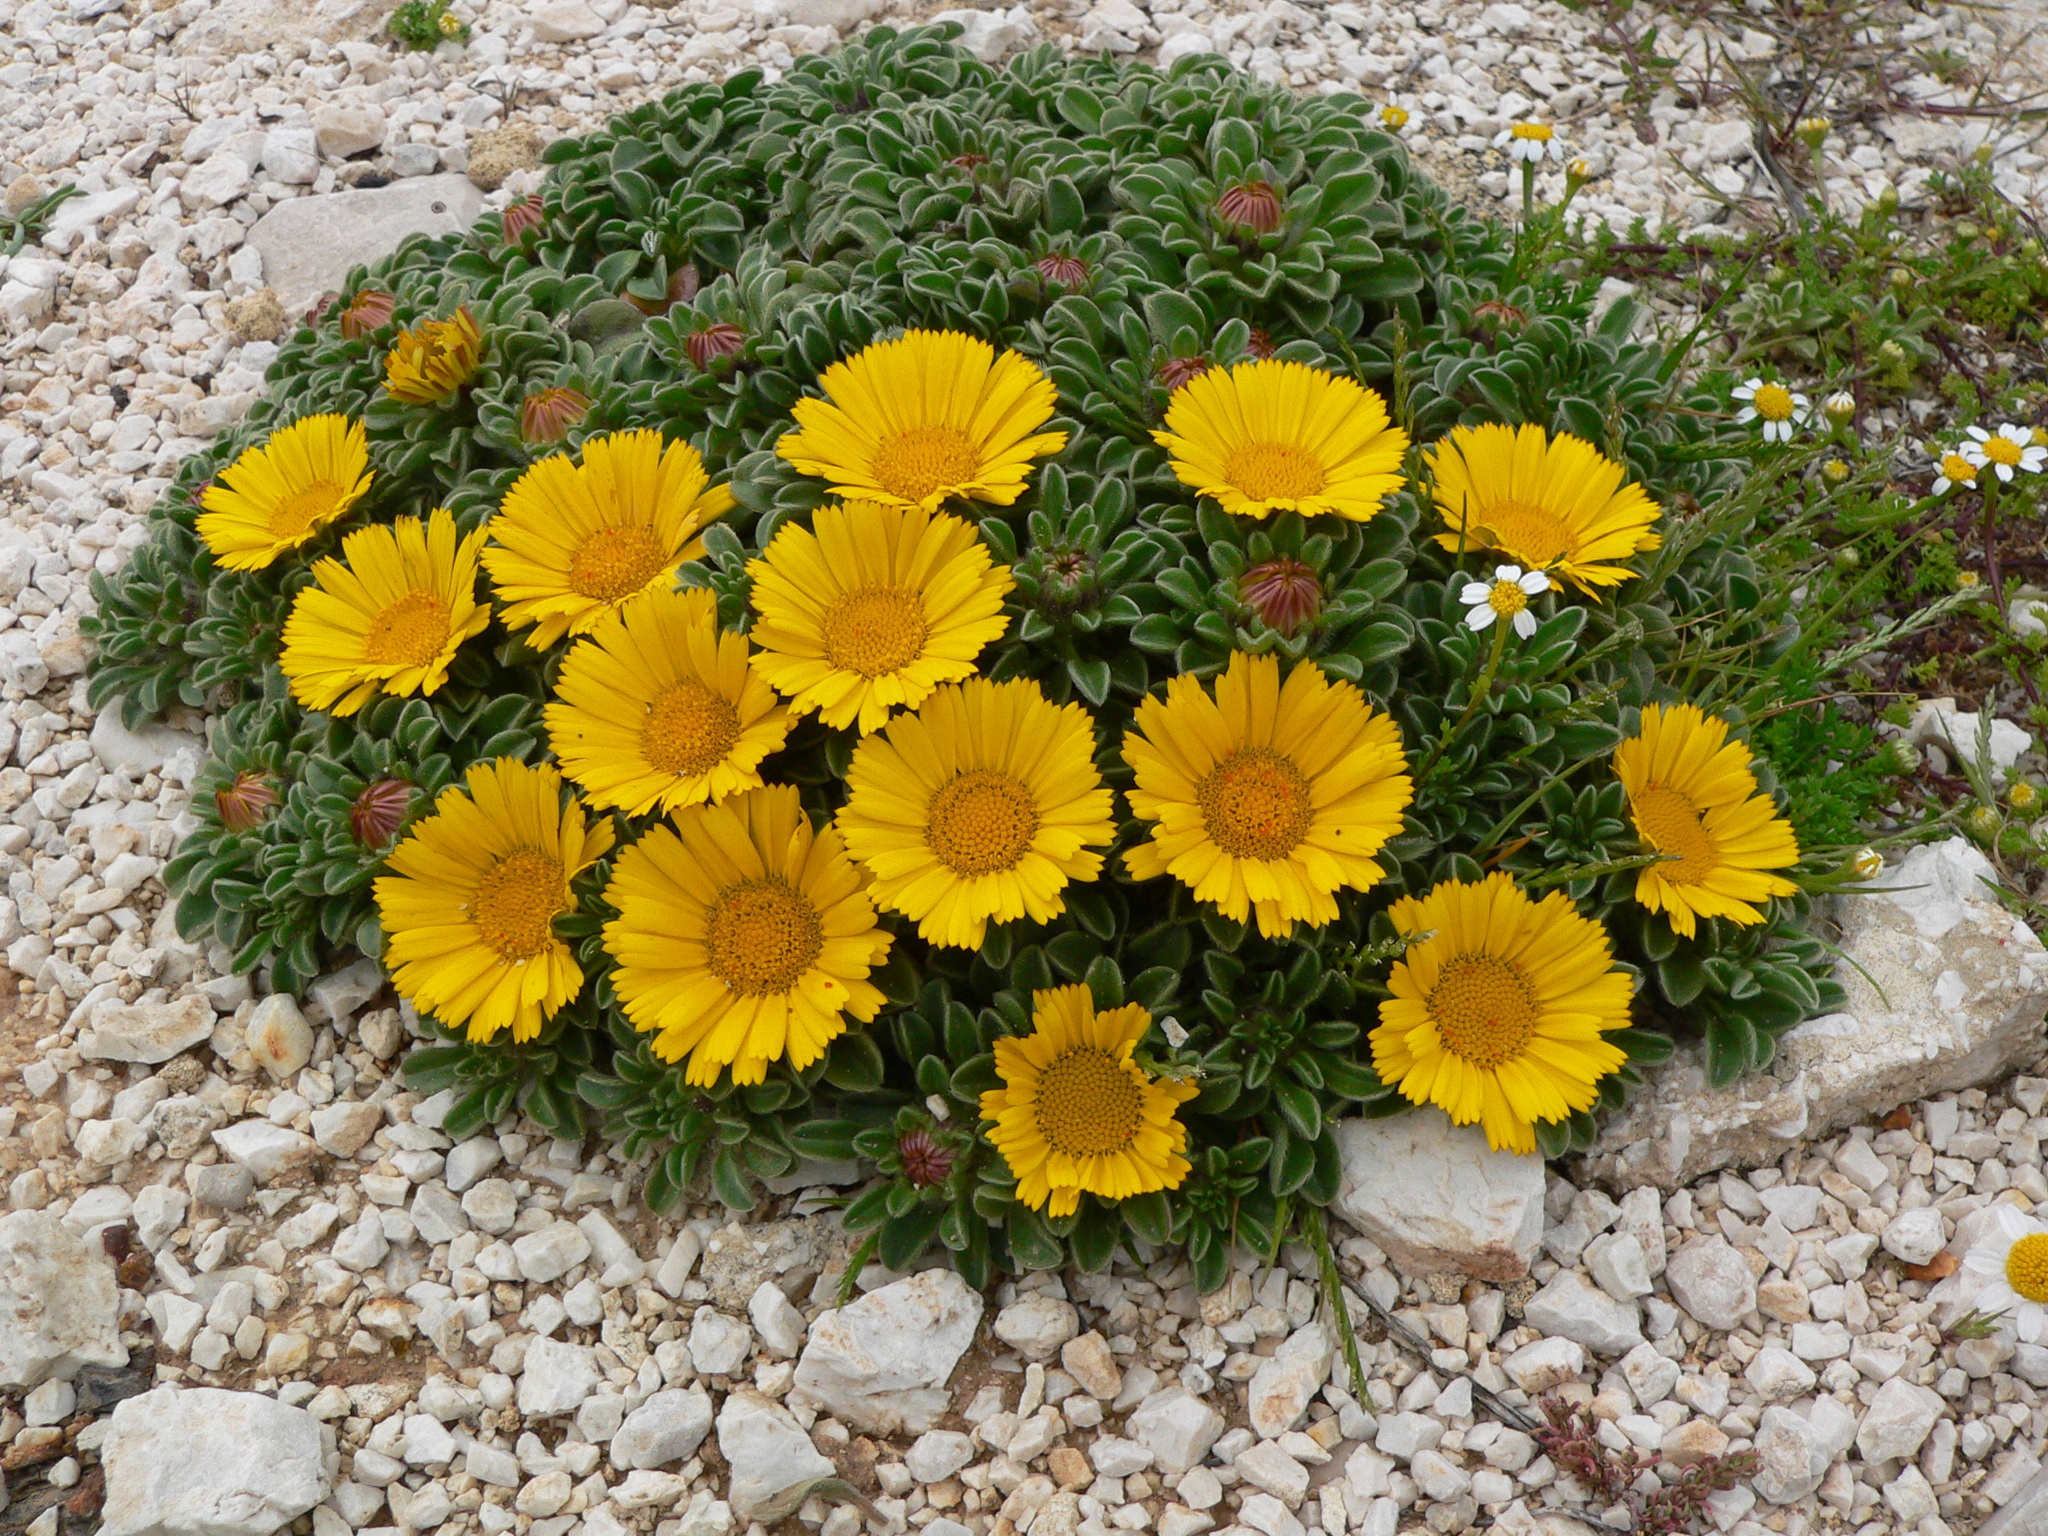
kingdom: Plantae
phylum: Tracheophyta
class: Magnoliopsida
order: Asterales
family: Asteraceae
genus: Pallenis
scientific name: Pallenis maritima
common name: Golden coin daisy
